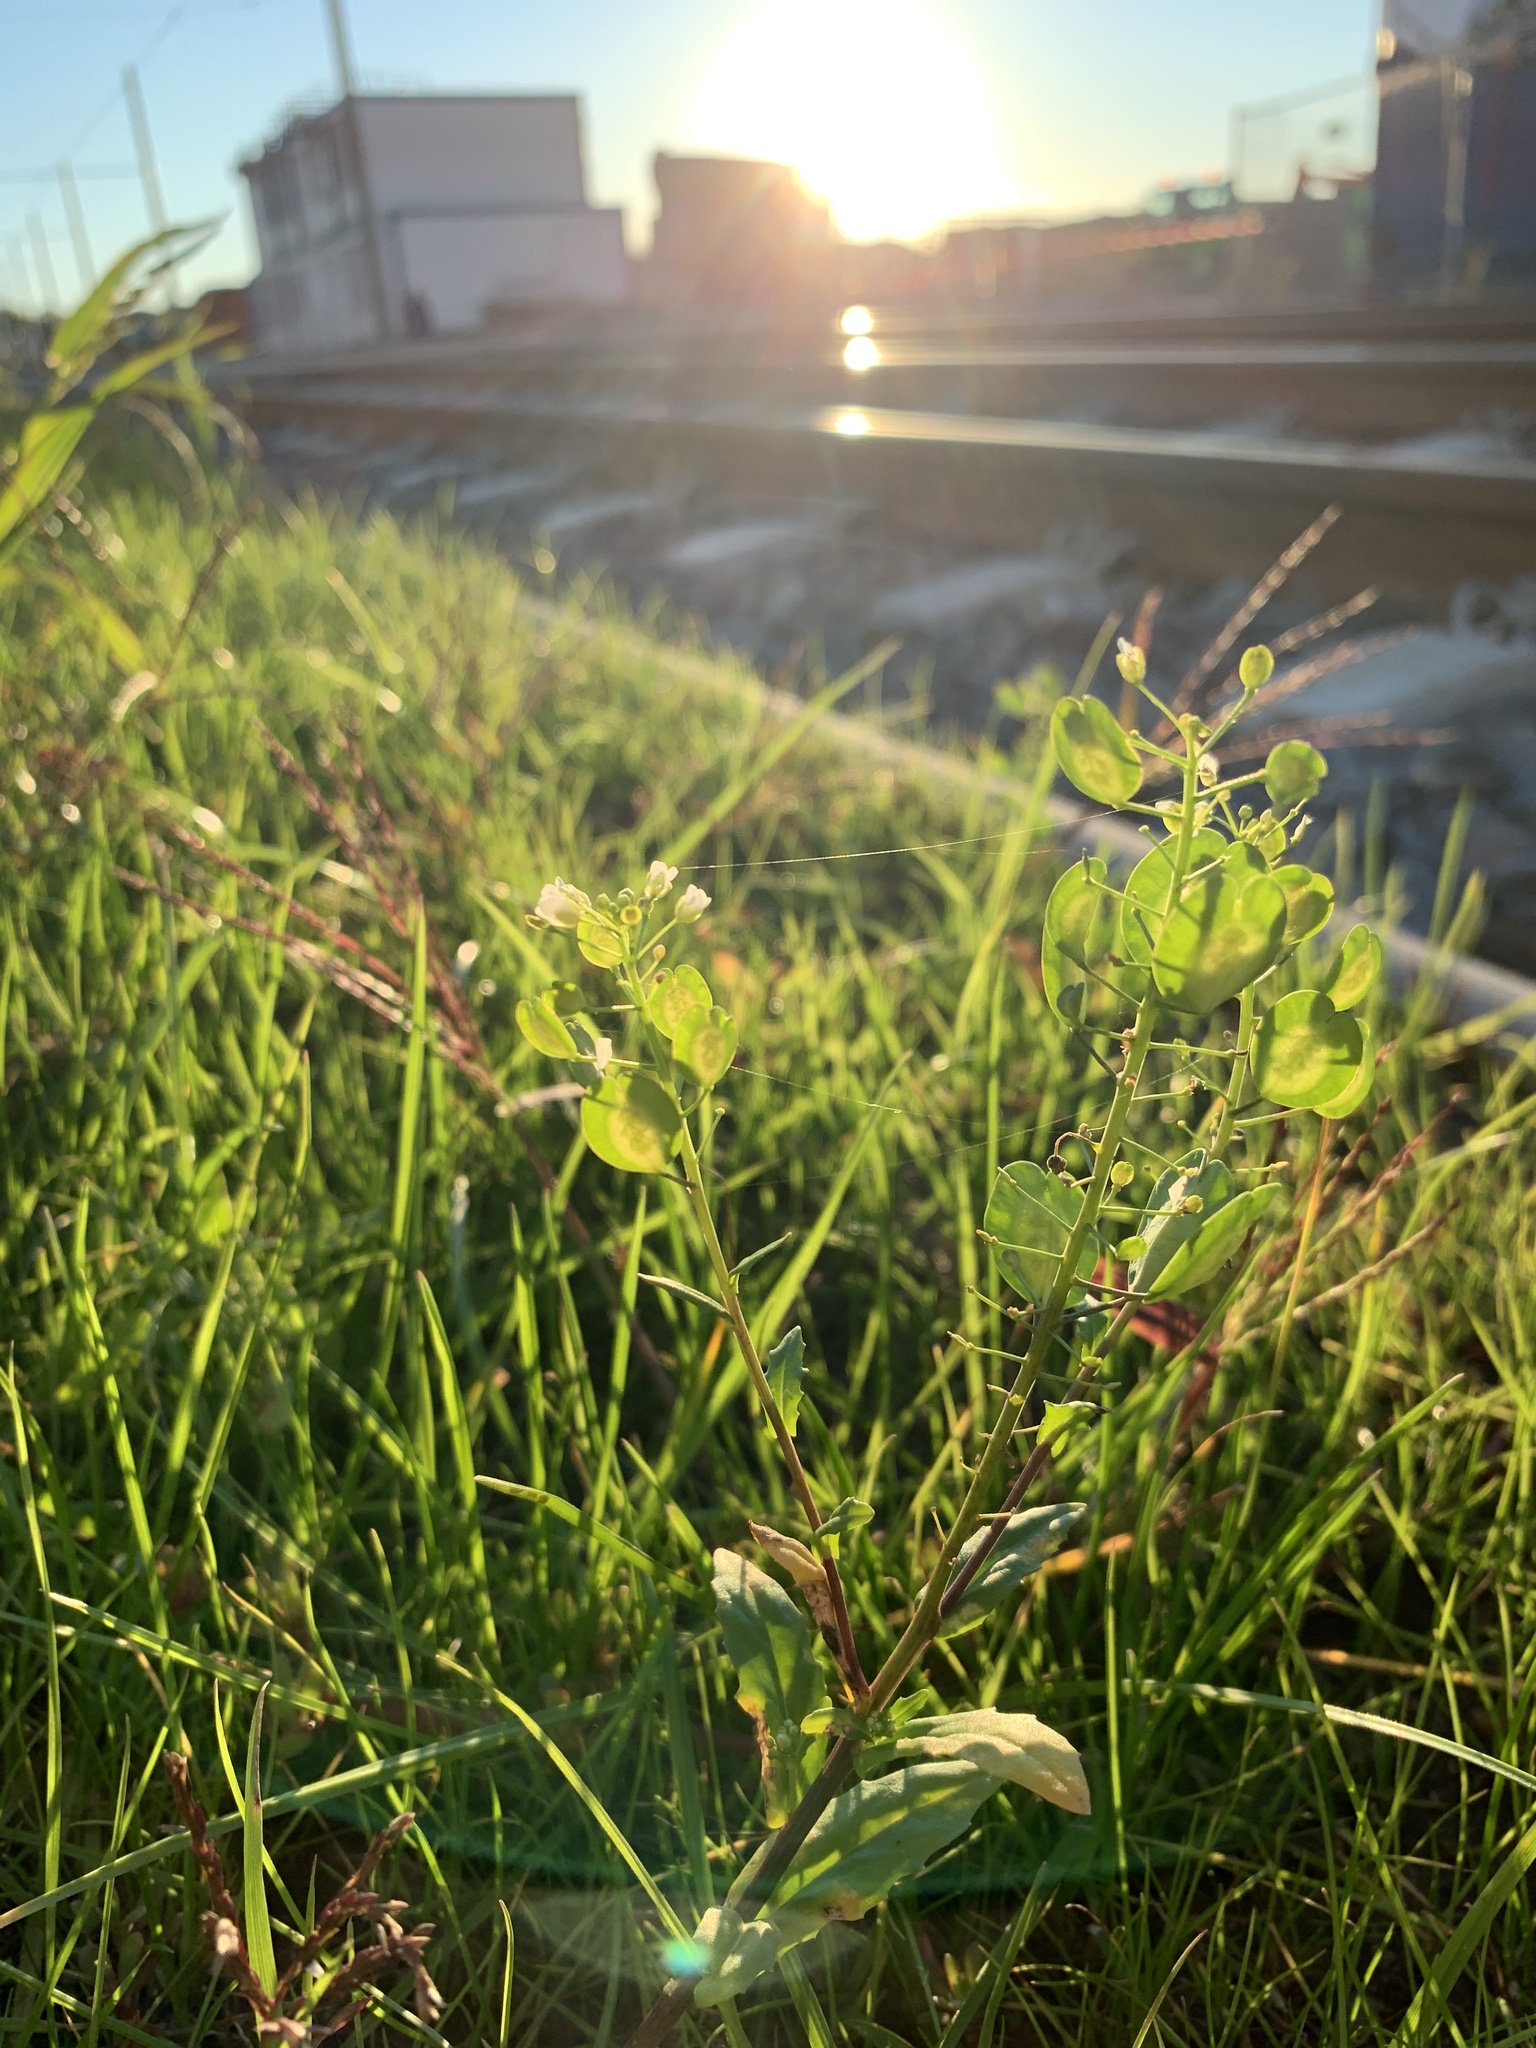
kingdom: Plantae
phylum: Tracheophyta
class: Magnoliopsida
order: Brassicales
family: Brassicaceae
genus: Thlaspi
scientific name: Thlaspi arvense
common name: Field pennycress
